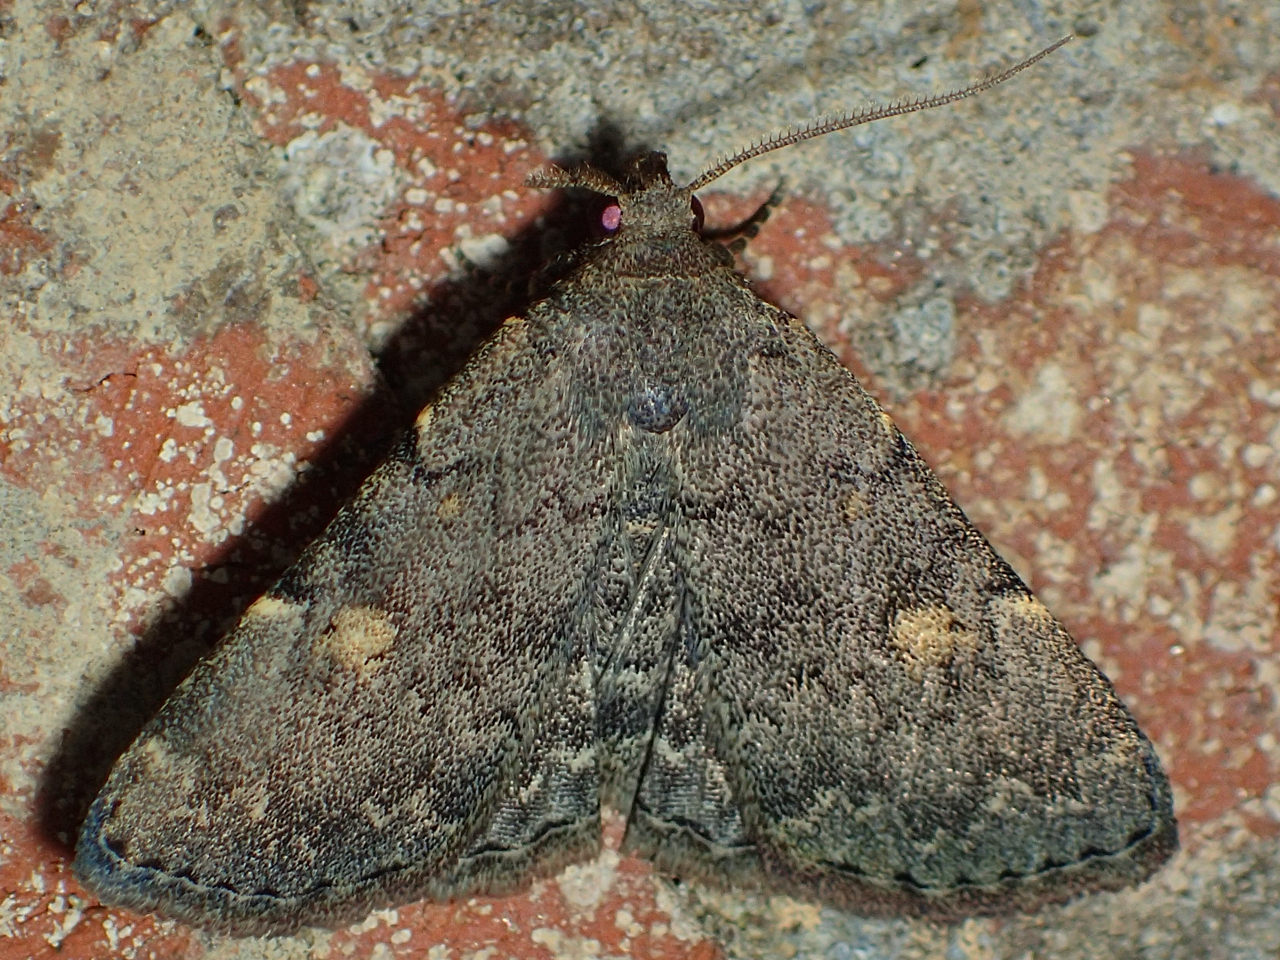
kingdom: Animalia
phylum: Arthropoda
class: Insecta
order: Lepidoptera
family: Erebidae
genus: Idia
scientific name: Idia aemula
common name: Common idia moth
